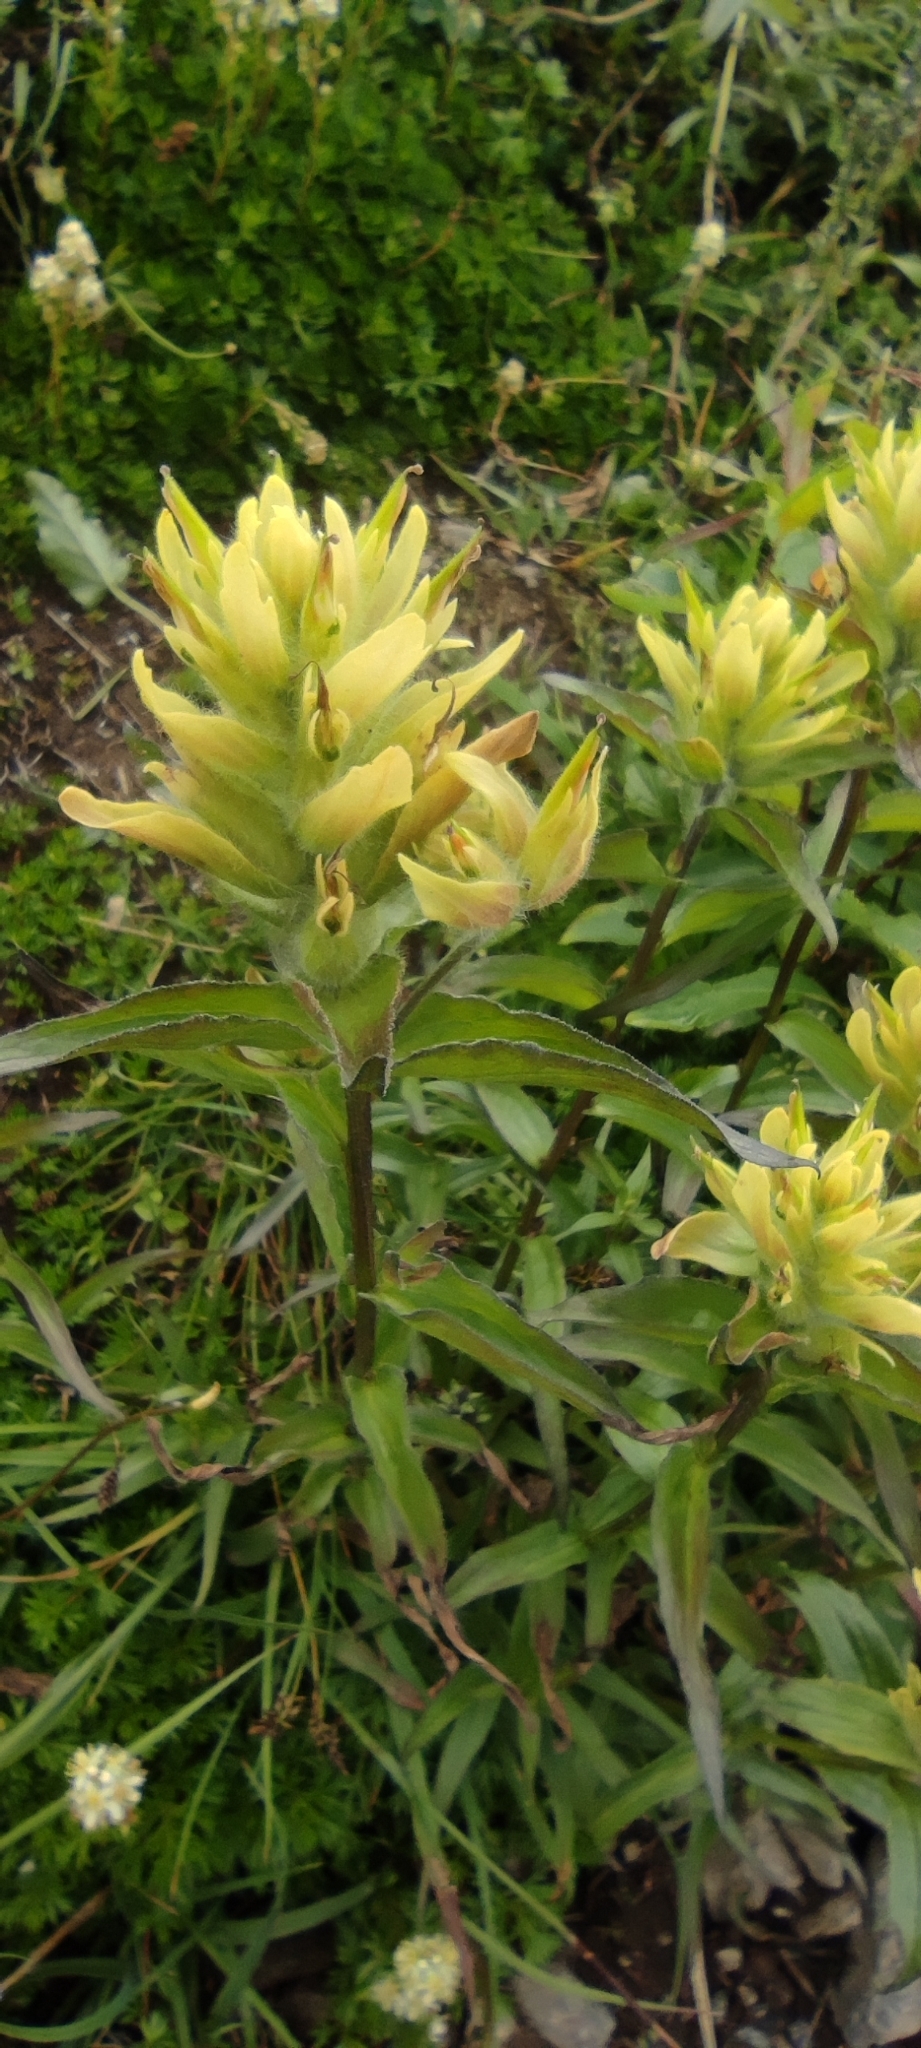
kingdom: Plantae
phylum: Tracheophyta
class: Magnoliopsida
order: Lamiales
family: Orobanchaceae
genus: Castilleja
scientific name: Castilleja unalaschcensis
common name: Unalaska paintbrush
